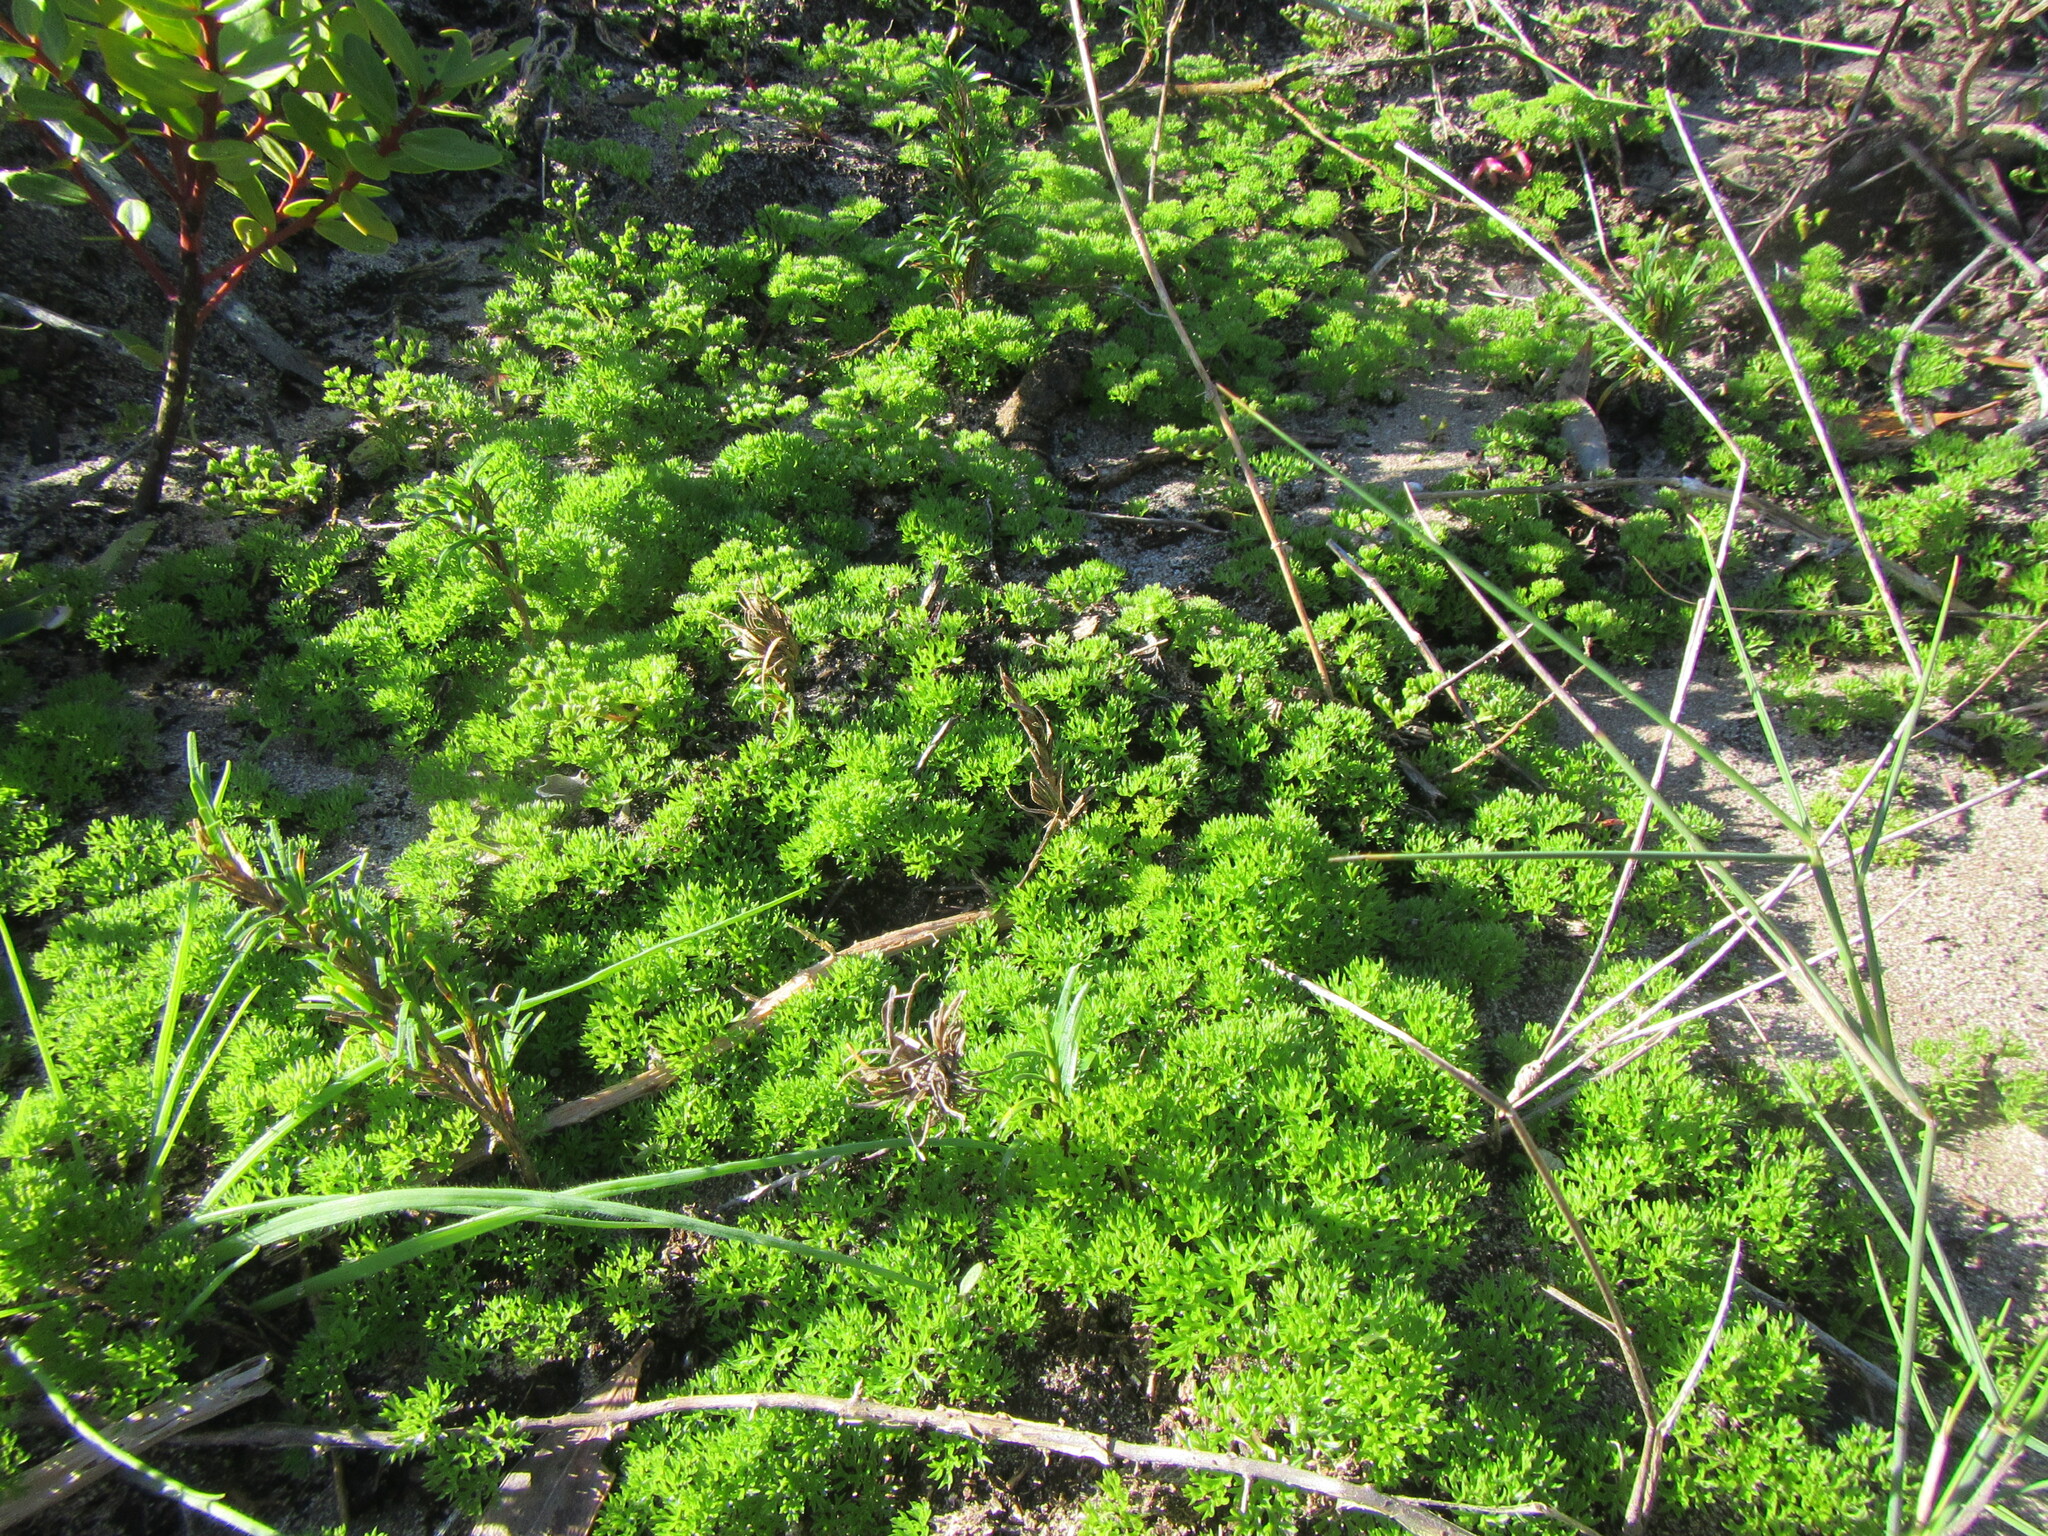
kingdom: Plantae
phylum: Tracheophyta
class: Magnoliopsida
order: Apiales
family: Apiaceae
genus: Annesorhiza
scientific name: Annesorhiza macrocarpa
